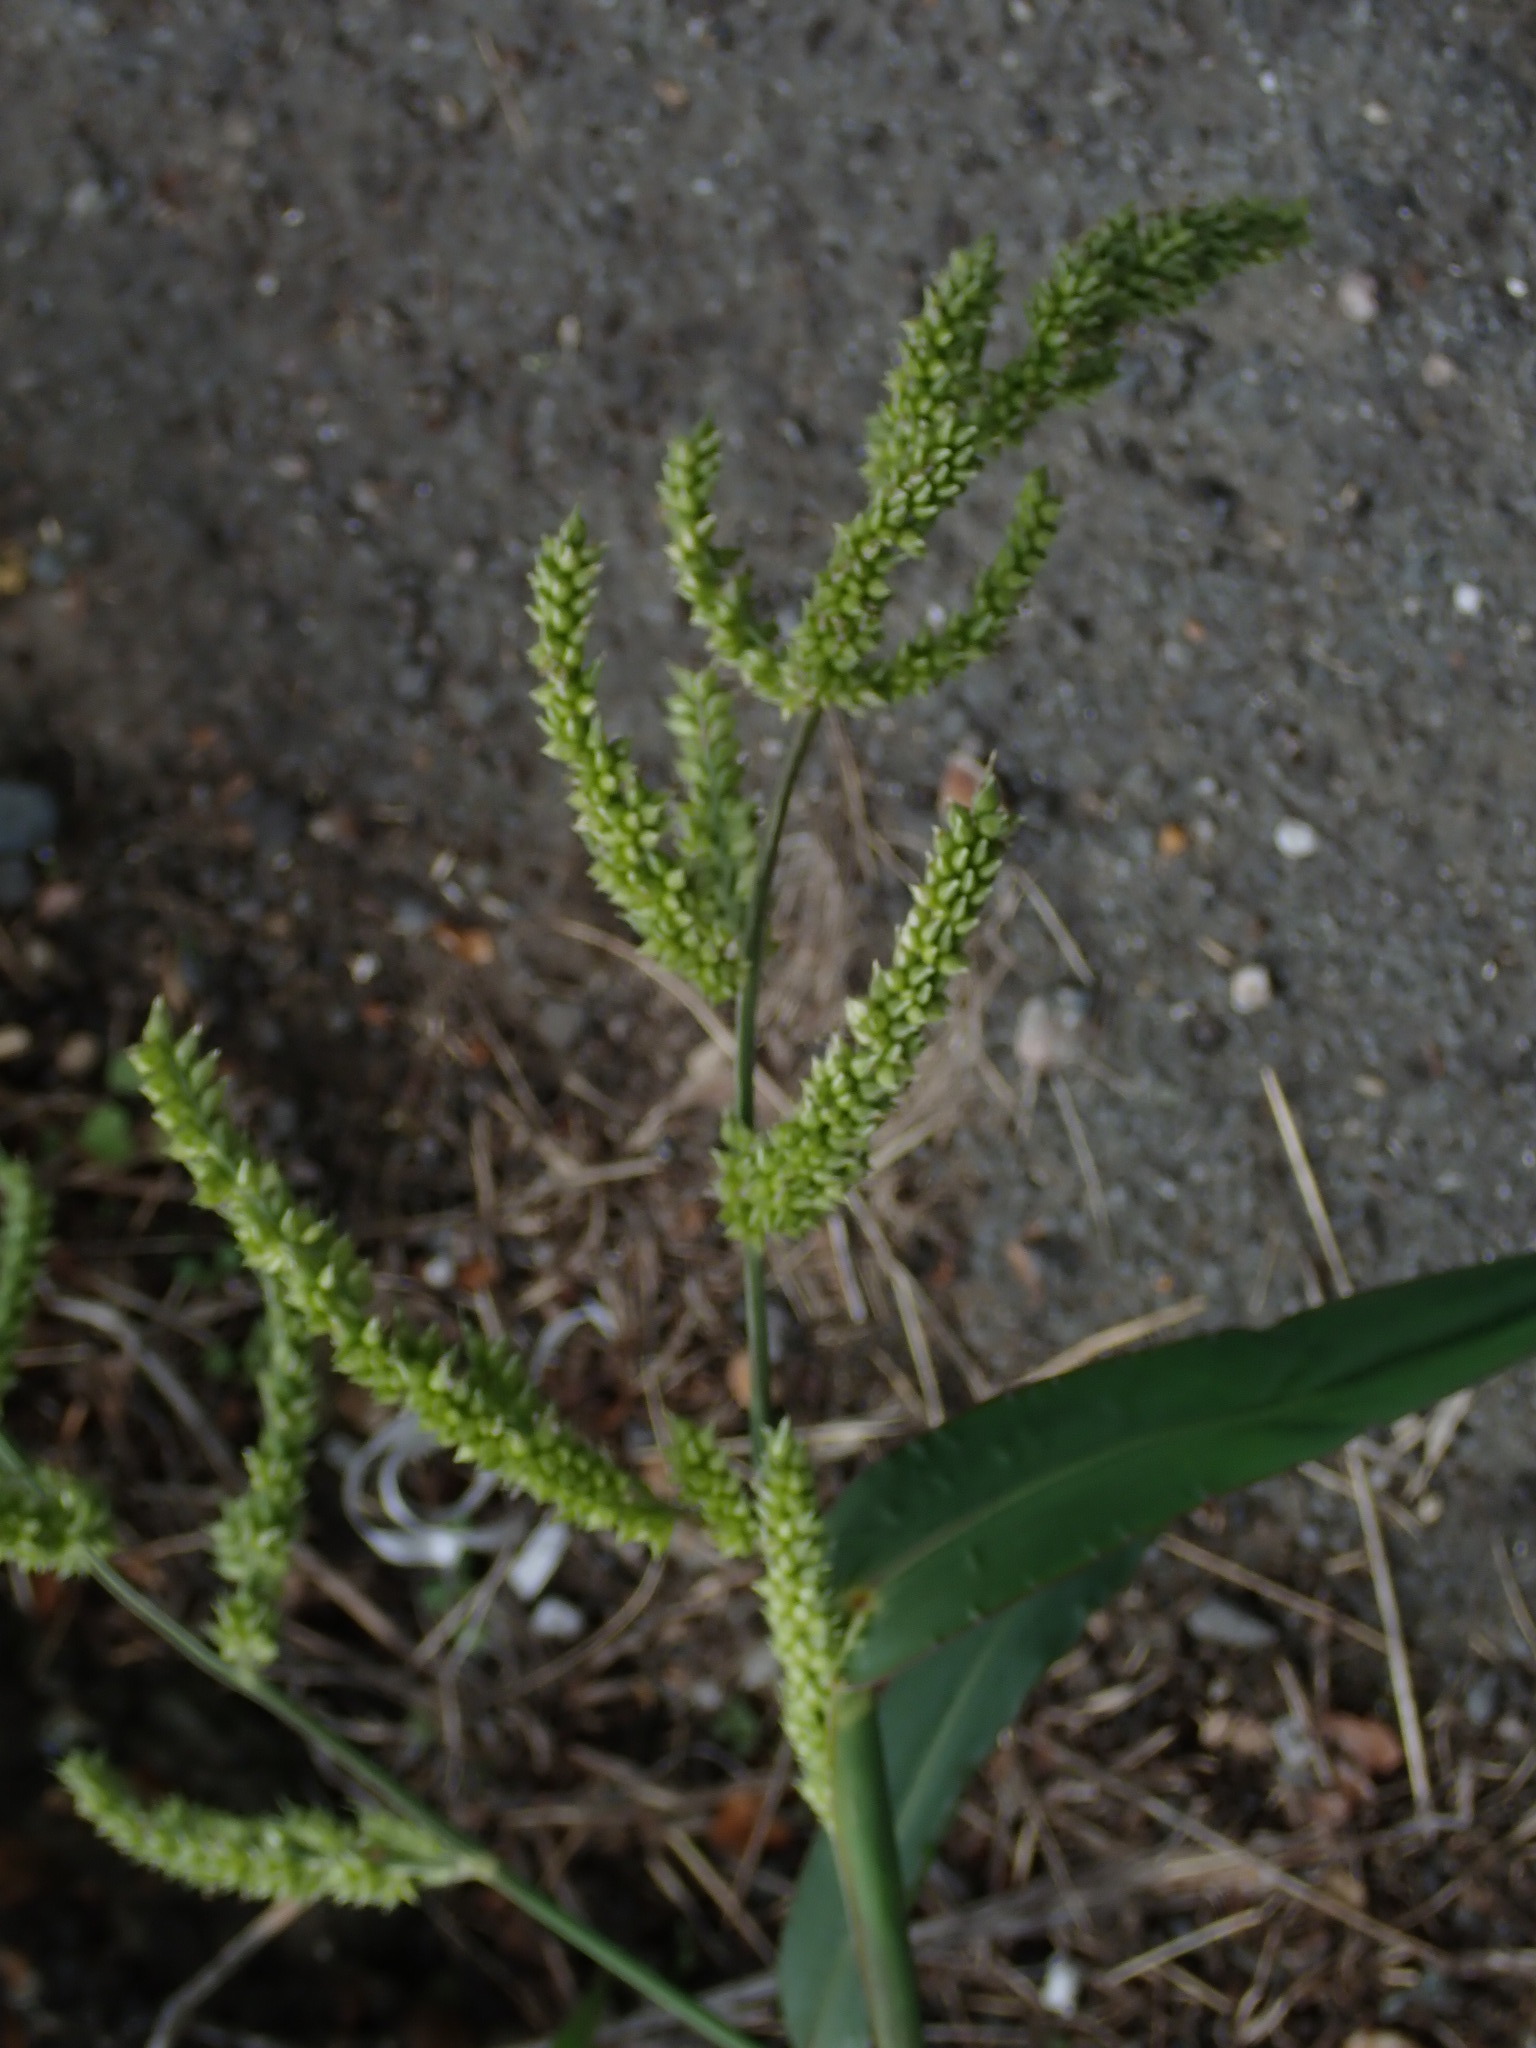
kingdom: Plantae
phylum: Tracheophyta
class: Liliopsida
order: Poales
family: Poaceae
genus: Echinochloa
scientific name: Echinochloa crus-galli
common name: Cockspur
